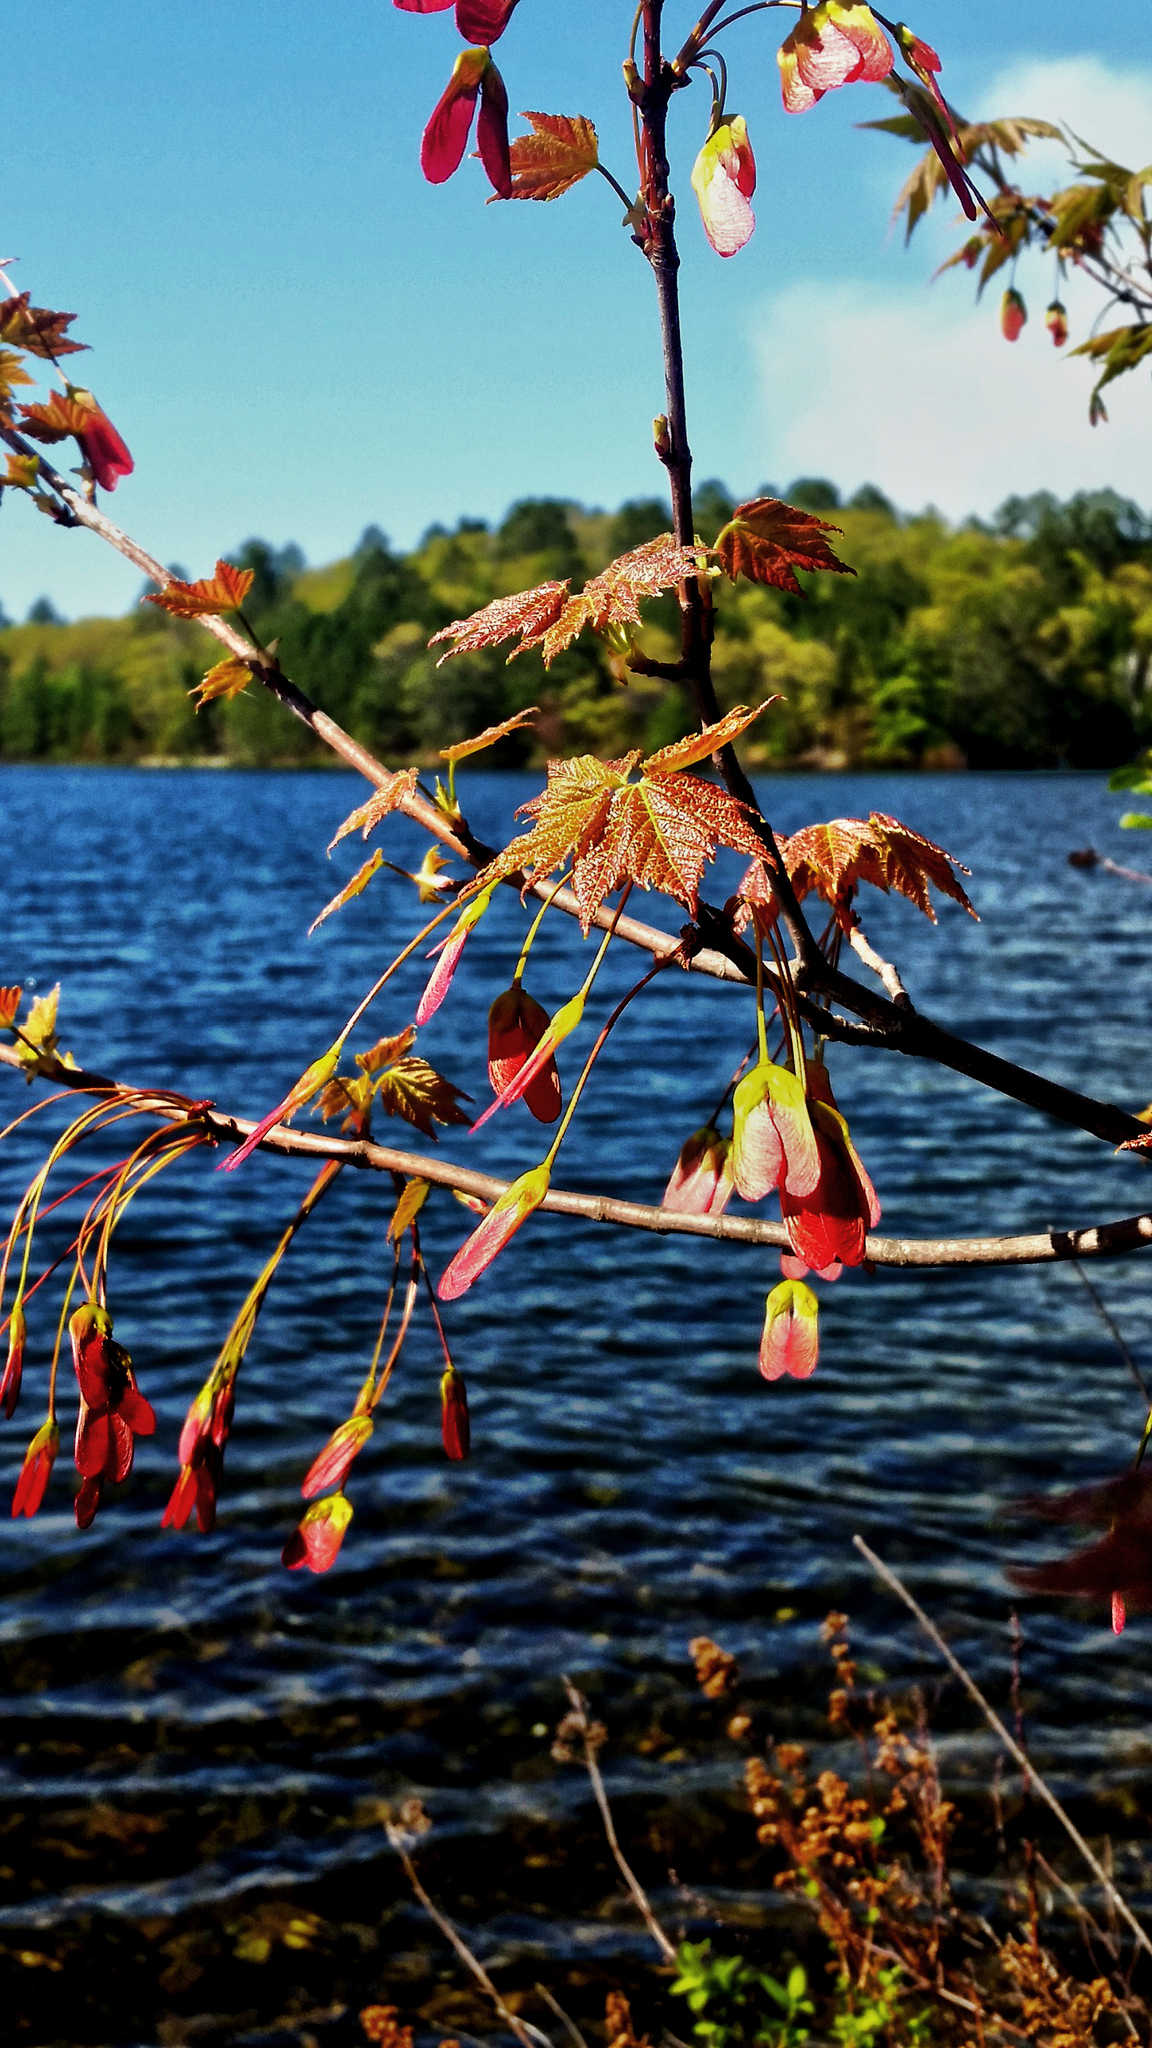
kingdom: Plantae
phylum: Tracheophyta
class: Magnoliopsida
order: Sapindales
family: Sapindaceae
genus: Acer
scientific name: Acer rubrum
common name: Red maple
